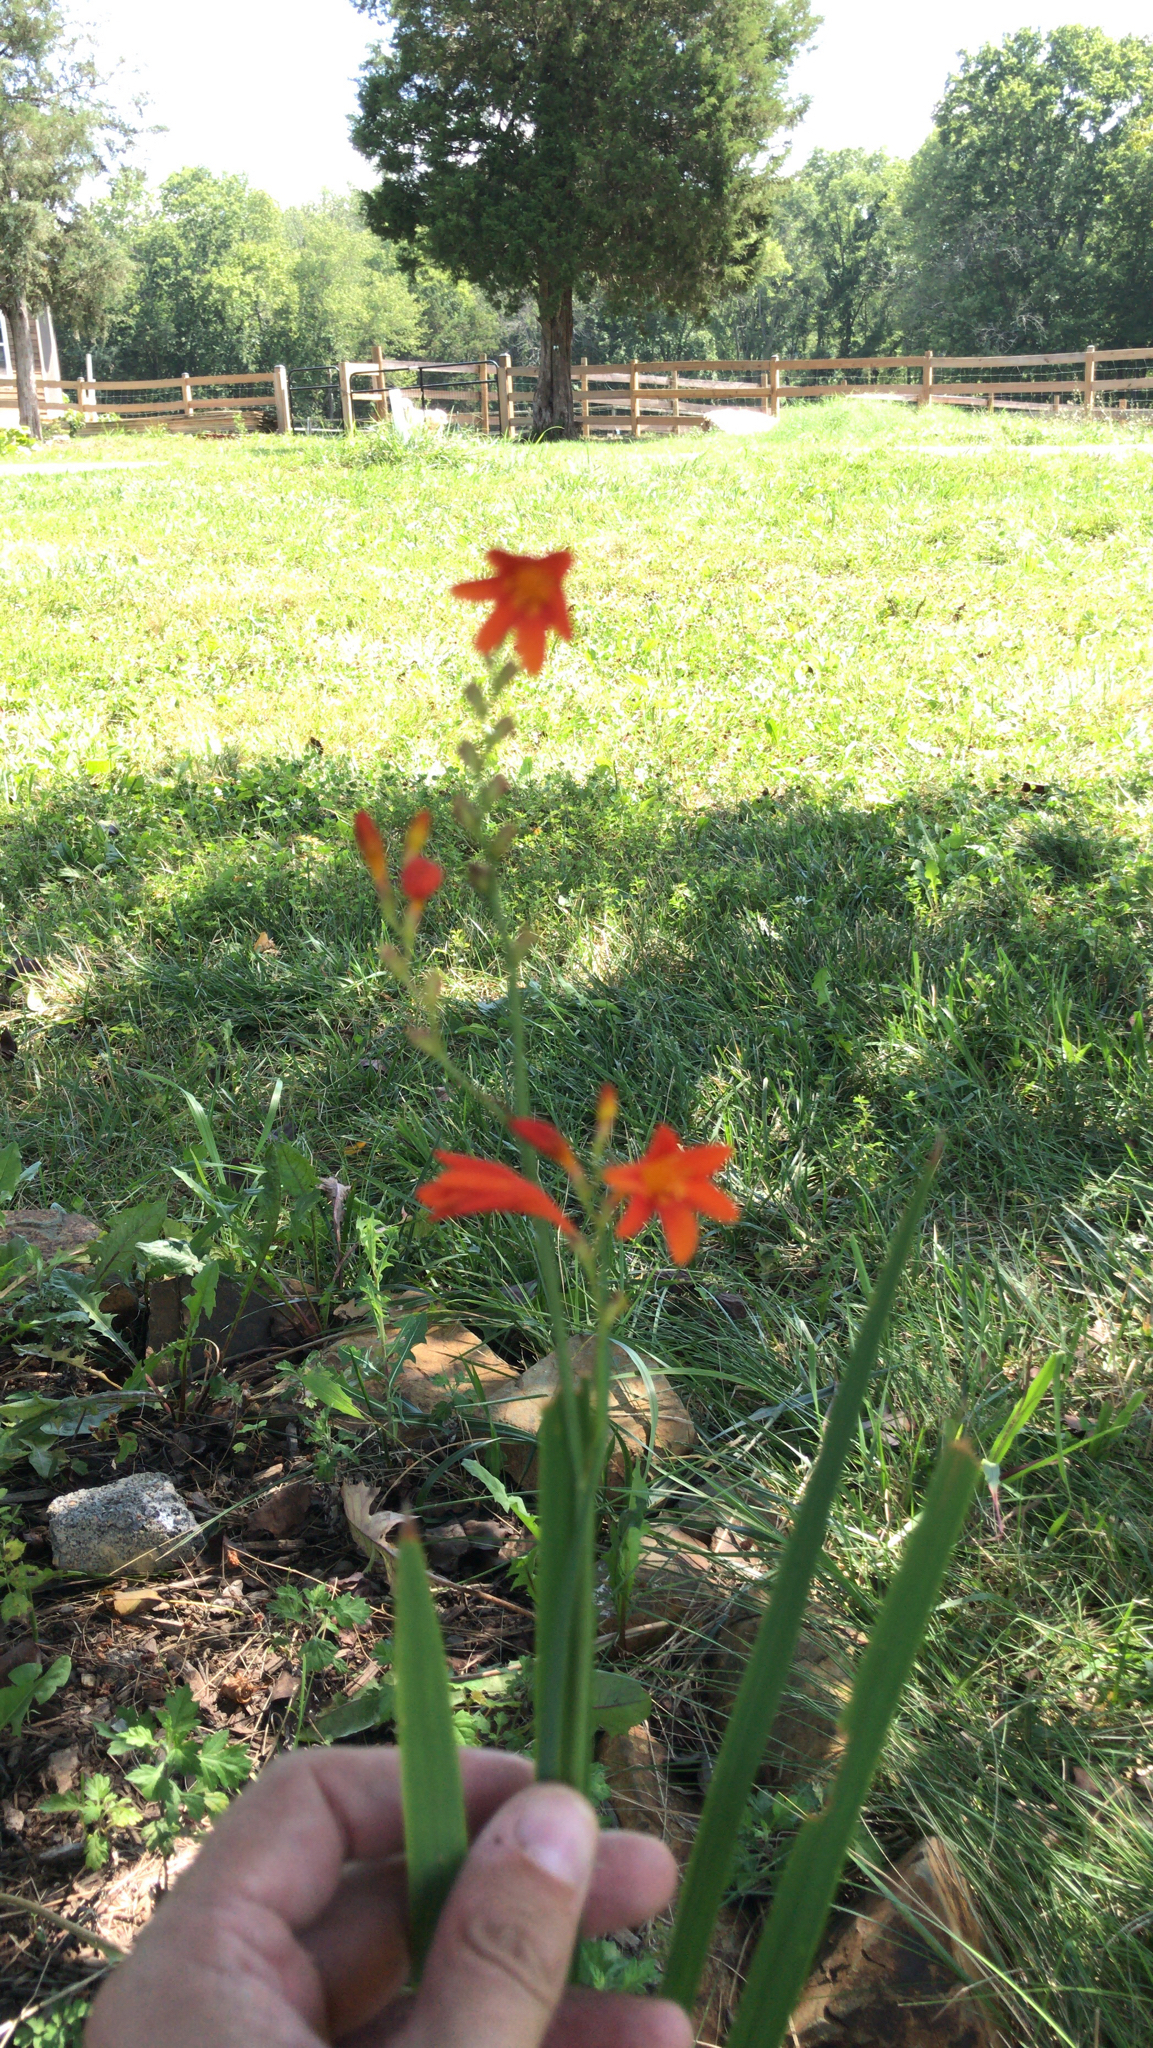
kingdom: Plantae
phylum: Tracheophyta
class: Liliopsida
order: Asparagales
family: Iridaceae
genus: Crocosmia
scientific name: Crocosmia crocosmiiflora
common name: Montbretia
